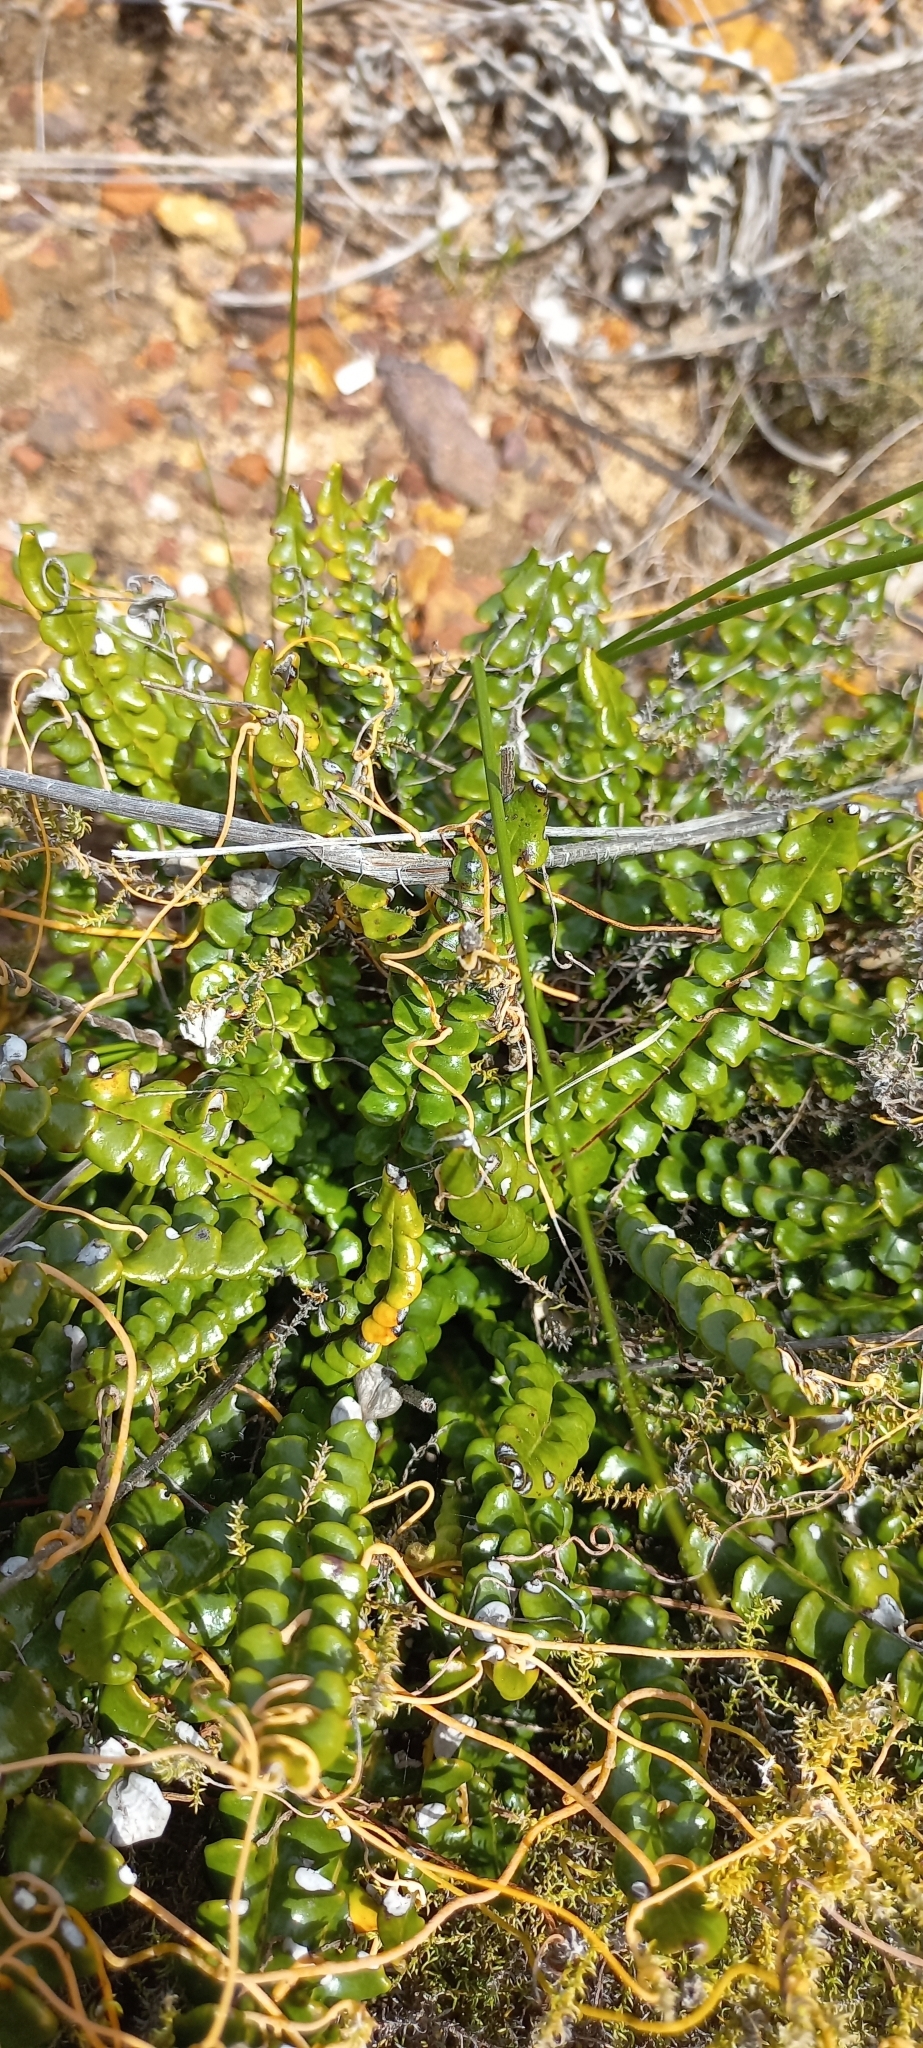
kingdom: Plantae
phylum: Tracheophyta
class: Magnoliopsida
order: Asterales
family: Asteraceae
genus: Gerbera
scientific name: Gerbera linnaei
